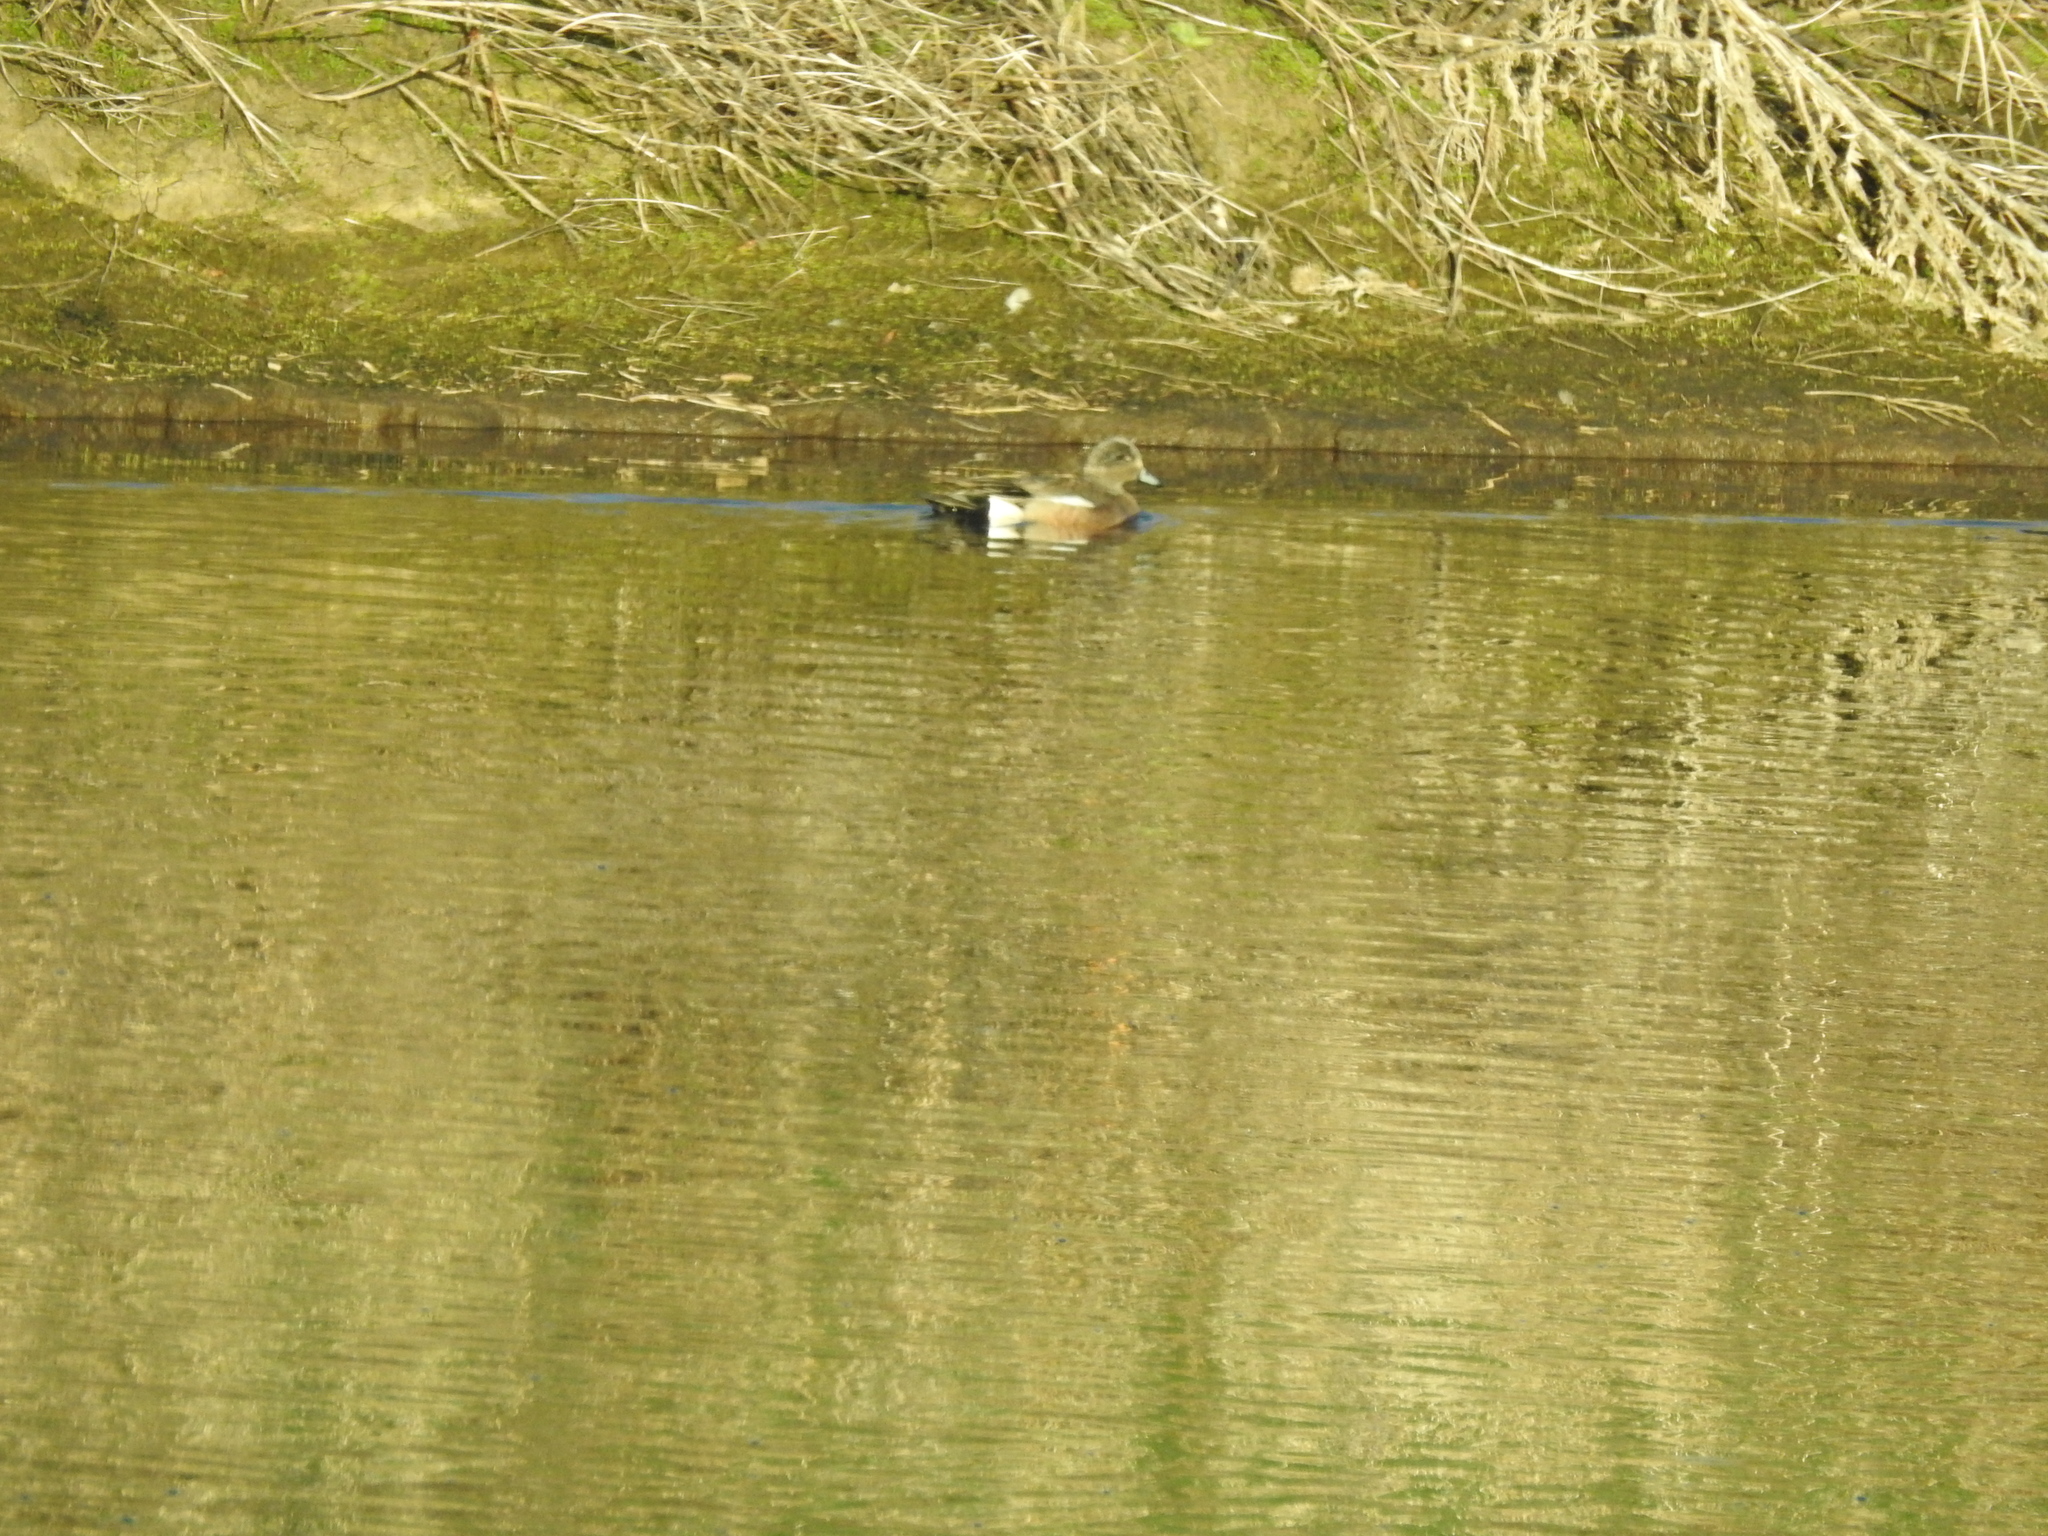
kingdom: Animalia
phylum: Chordata
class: Aves
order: Anseriformes
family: Anatidae
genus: Mareca
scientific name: Mareca americana
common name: American wigeon
